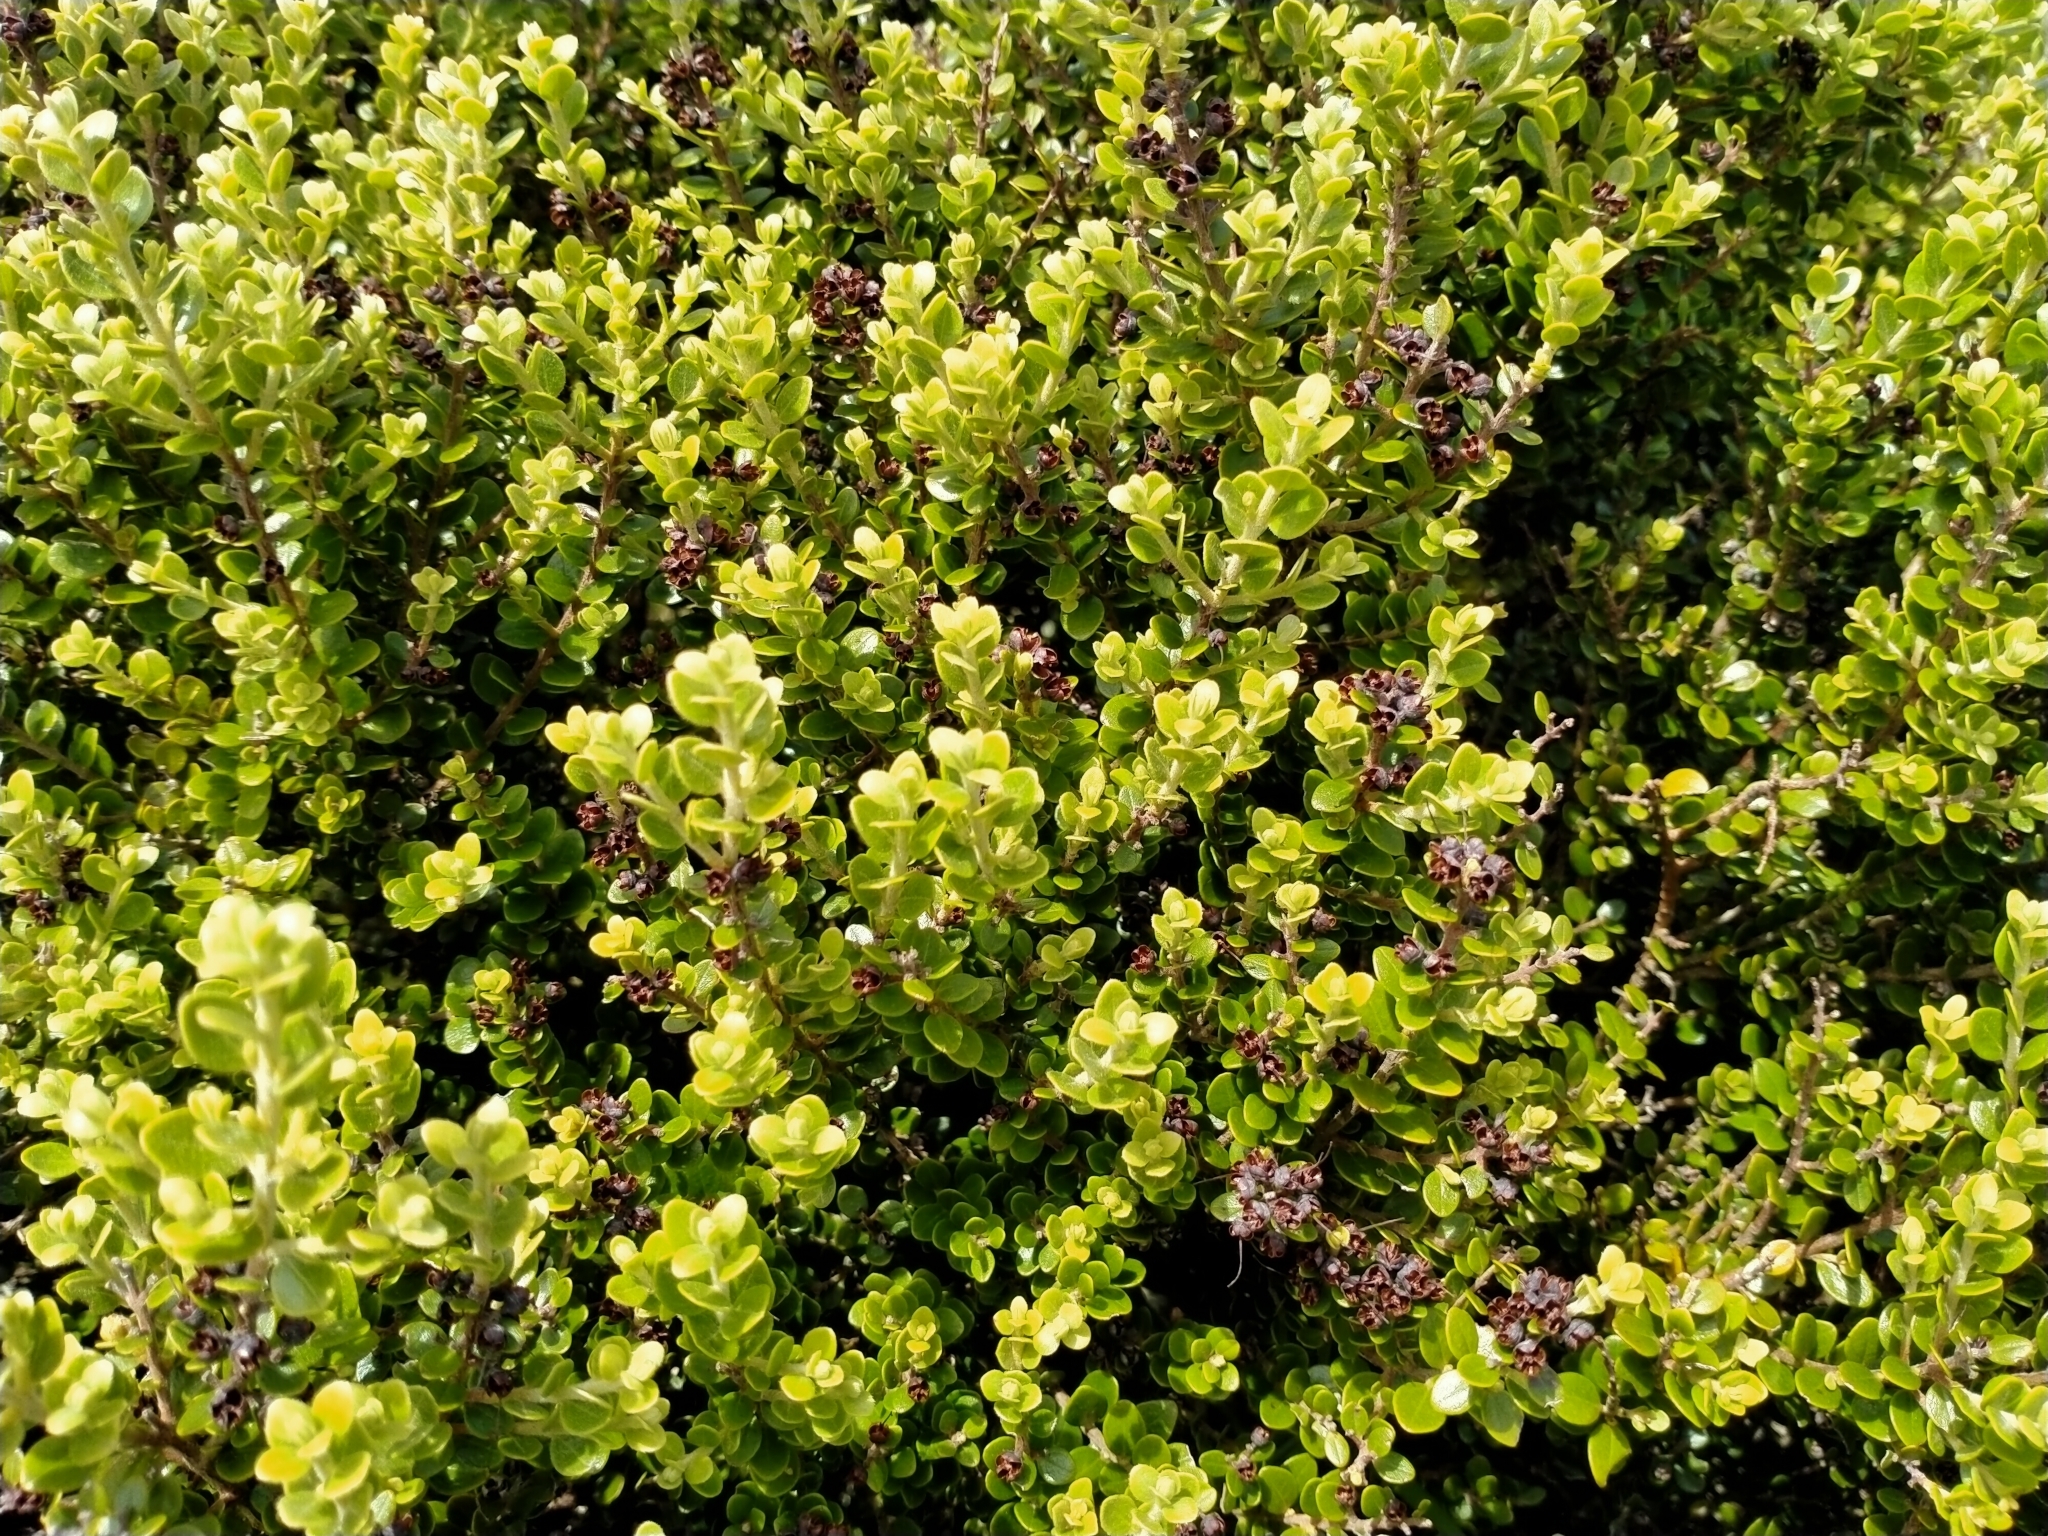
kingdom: Plantae
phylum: Tracheophyta
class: Magnoliopsida
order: Myrtales
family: Myrtaceae
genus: Metrosideros
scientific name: Metrosideros perforata
